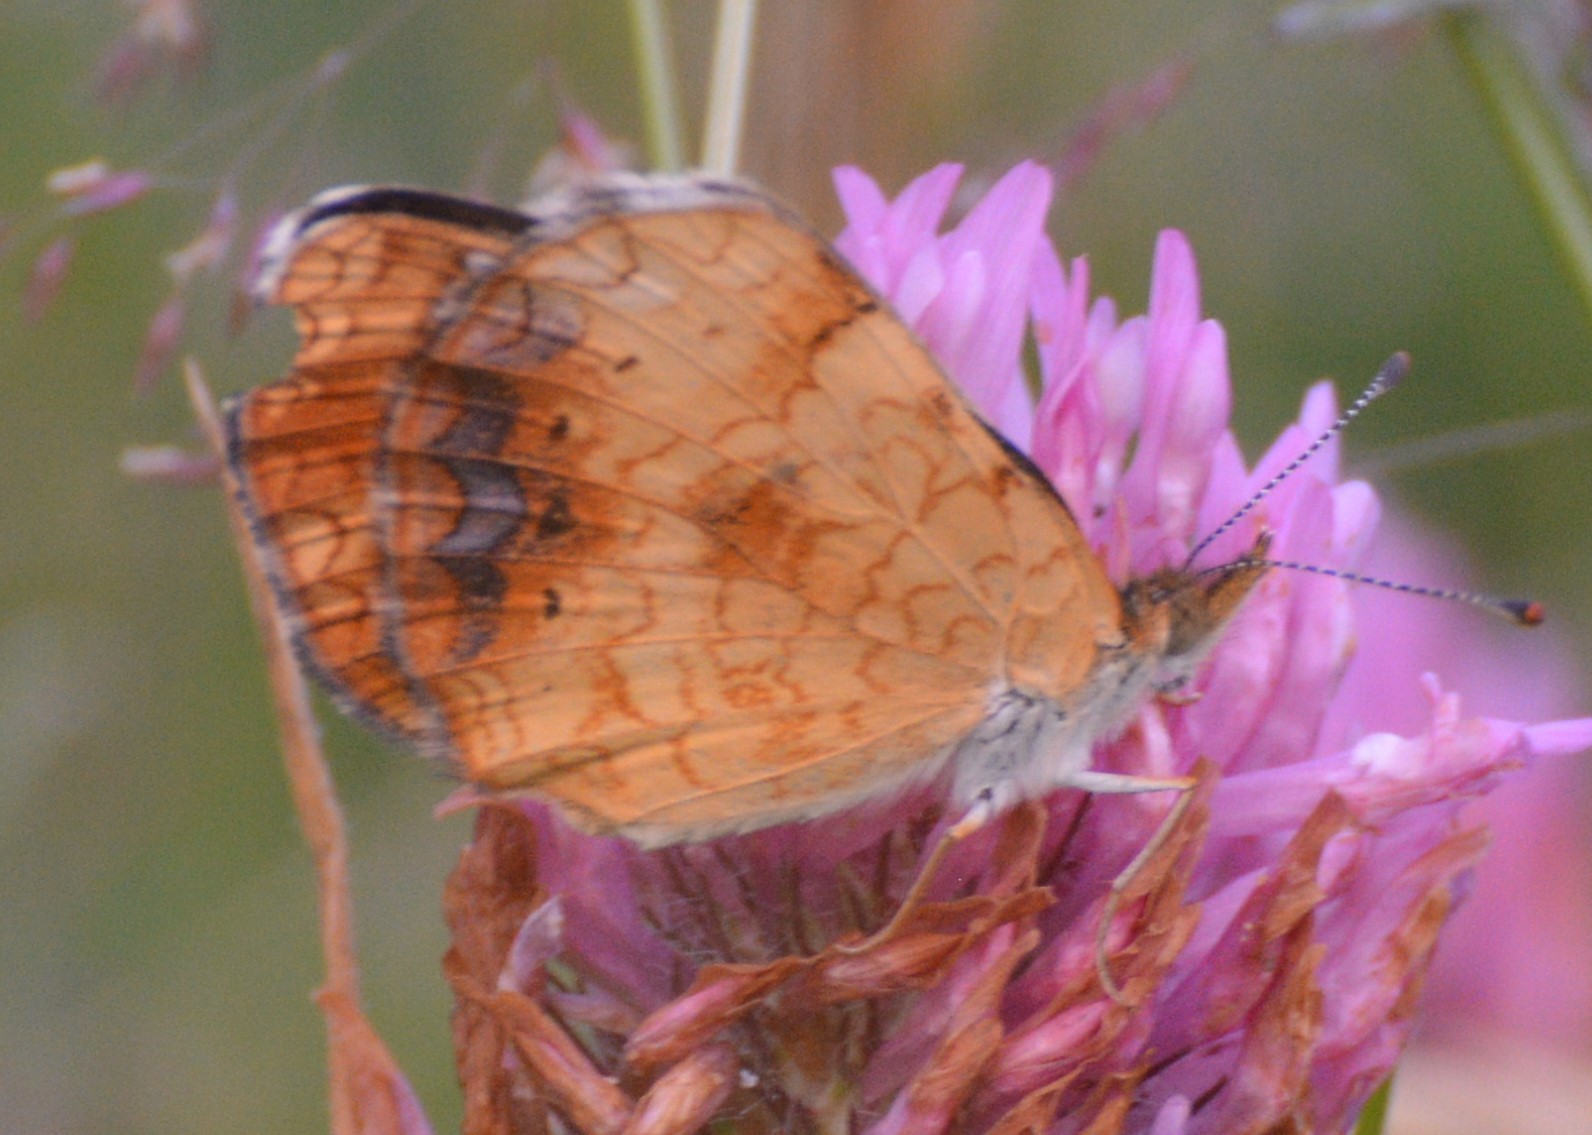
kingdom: Animalia
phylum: Arthropoda
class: Insecta
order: Lepidoptera
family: Nymphalidae
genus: Phyciodes
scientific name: Phyciodes tharos
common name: Pearl crescent
